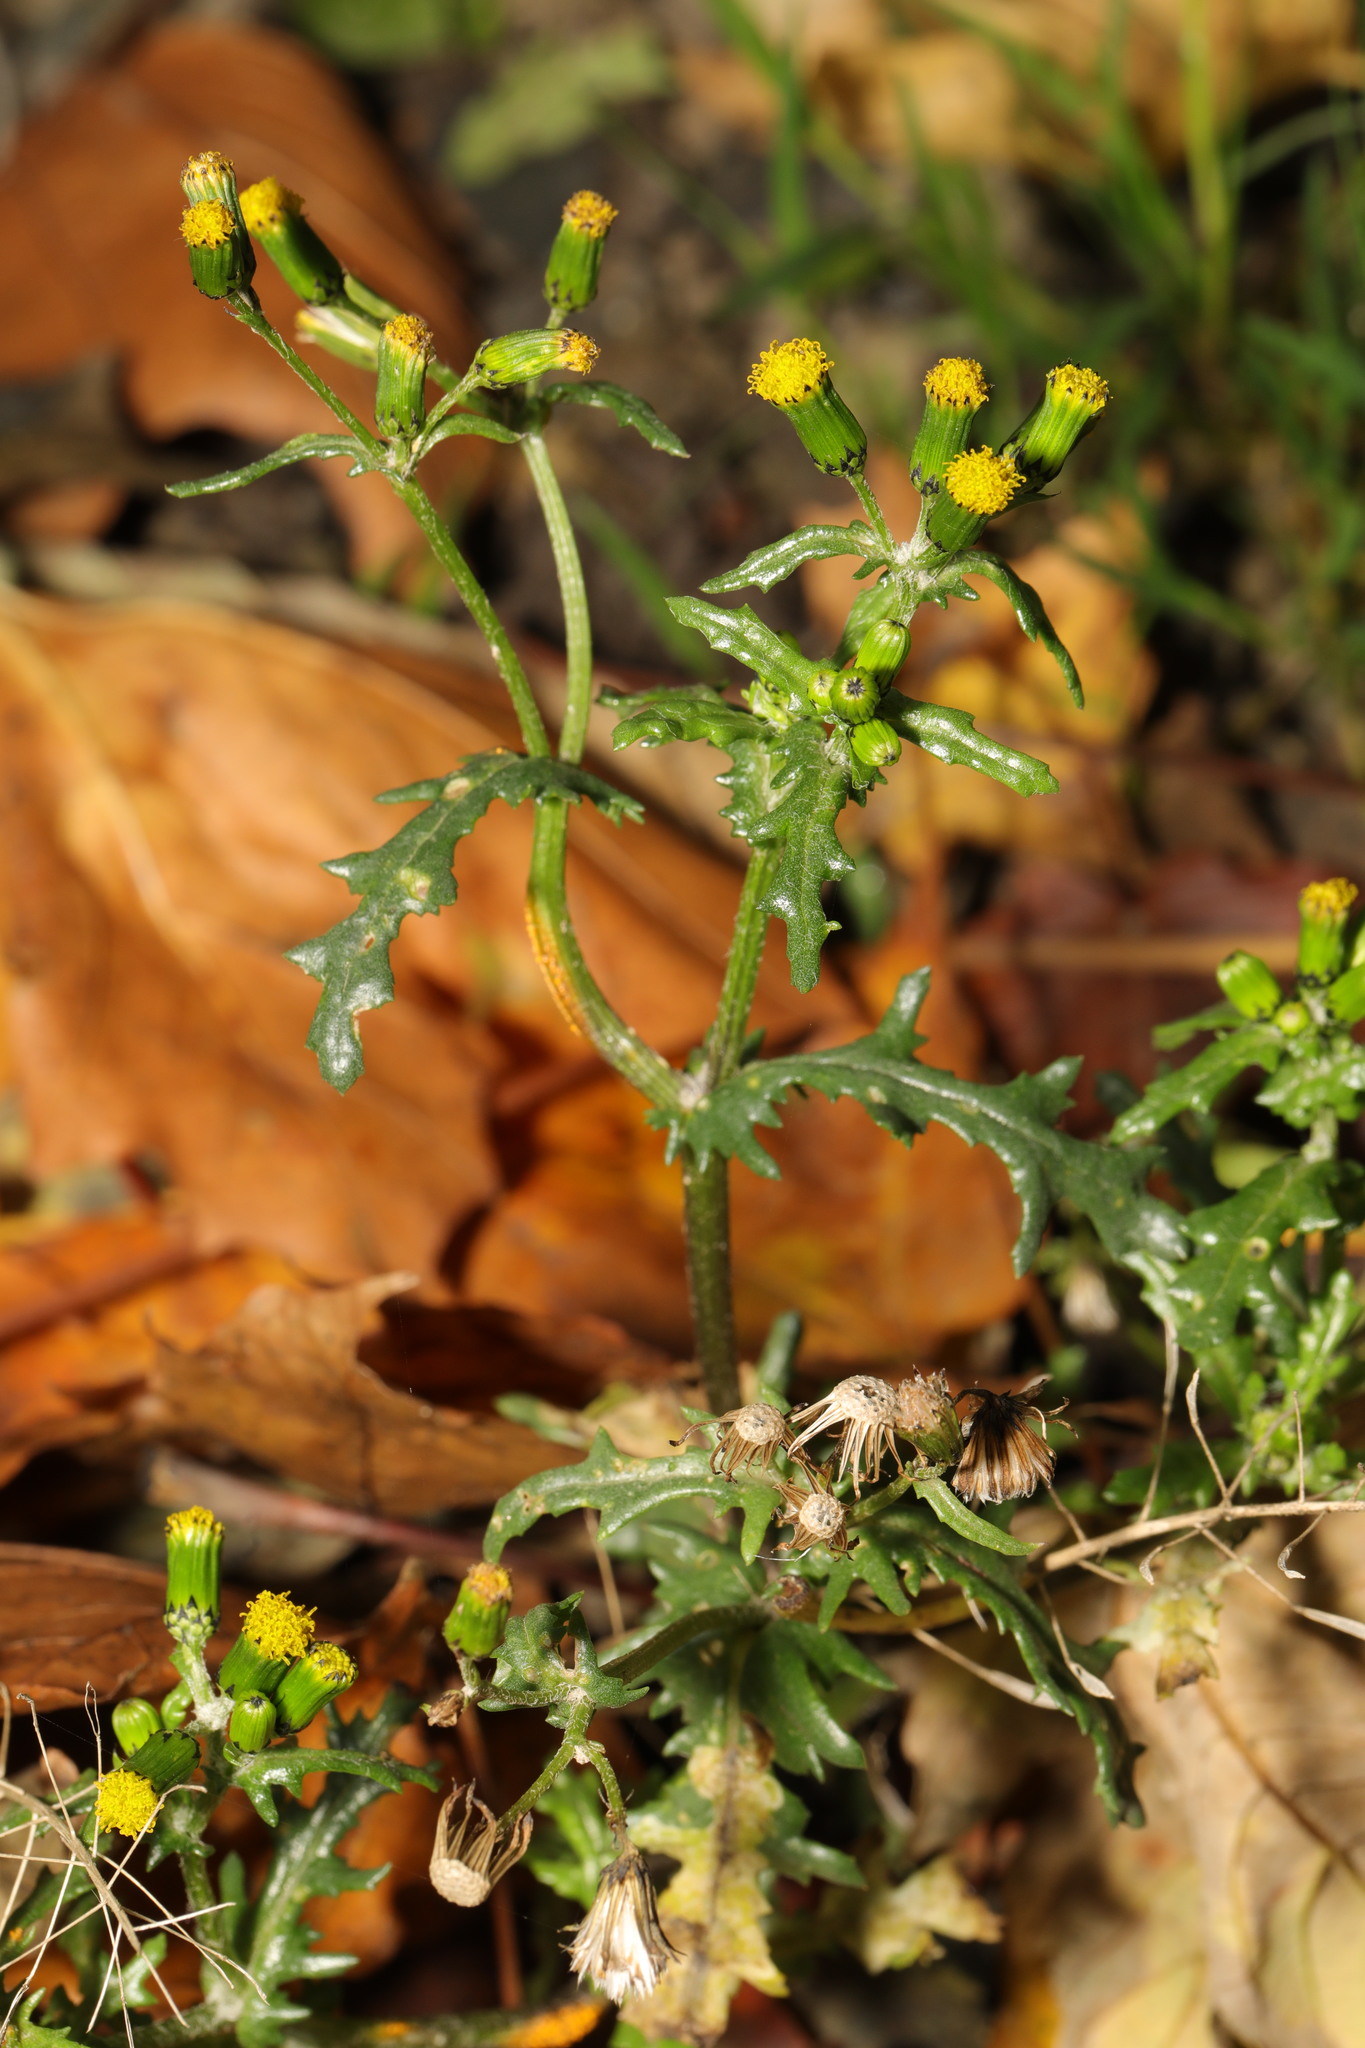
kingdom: Plantae
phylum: Tracheophyta
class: Magnoliopsida
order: Asterales
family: Asteraceae
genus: Senecio
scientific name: Senecio vulgaris
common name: Old-man-in-the-spring
